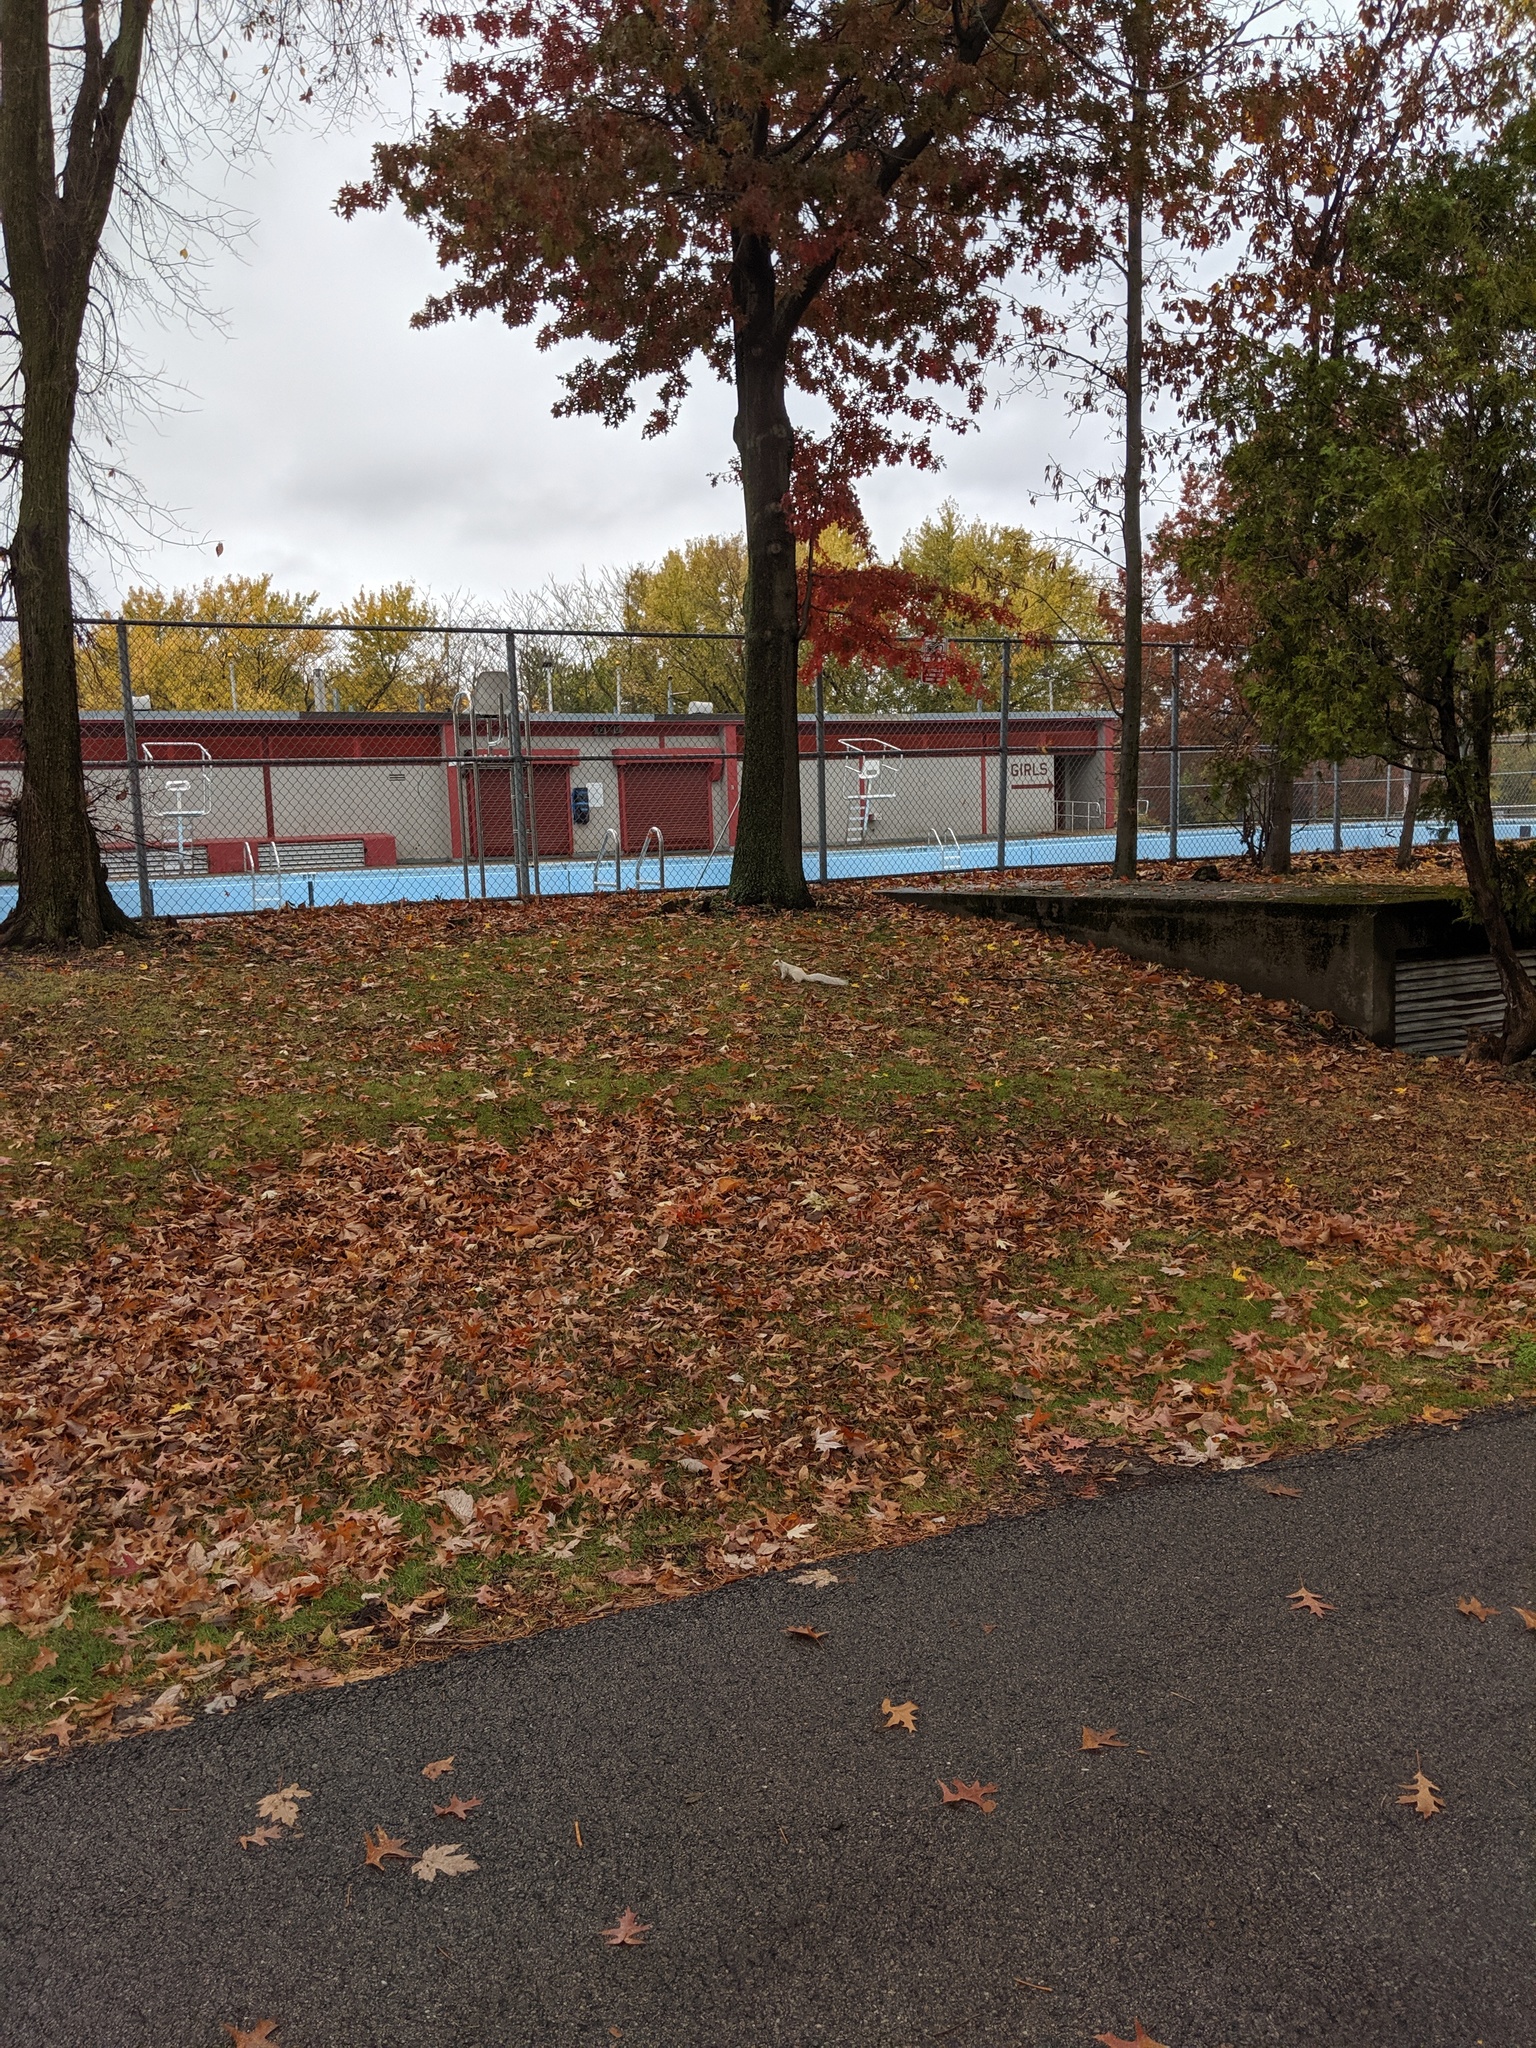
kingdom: Animalia
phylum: Chordata
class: Mammalia
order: Rodentia
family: Sciuridae
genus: Sciurus
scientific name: Sciurus carolinensis
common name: Eastern gray squirrel
